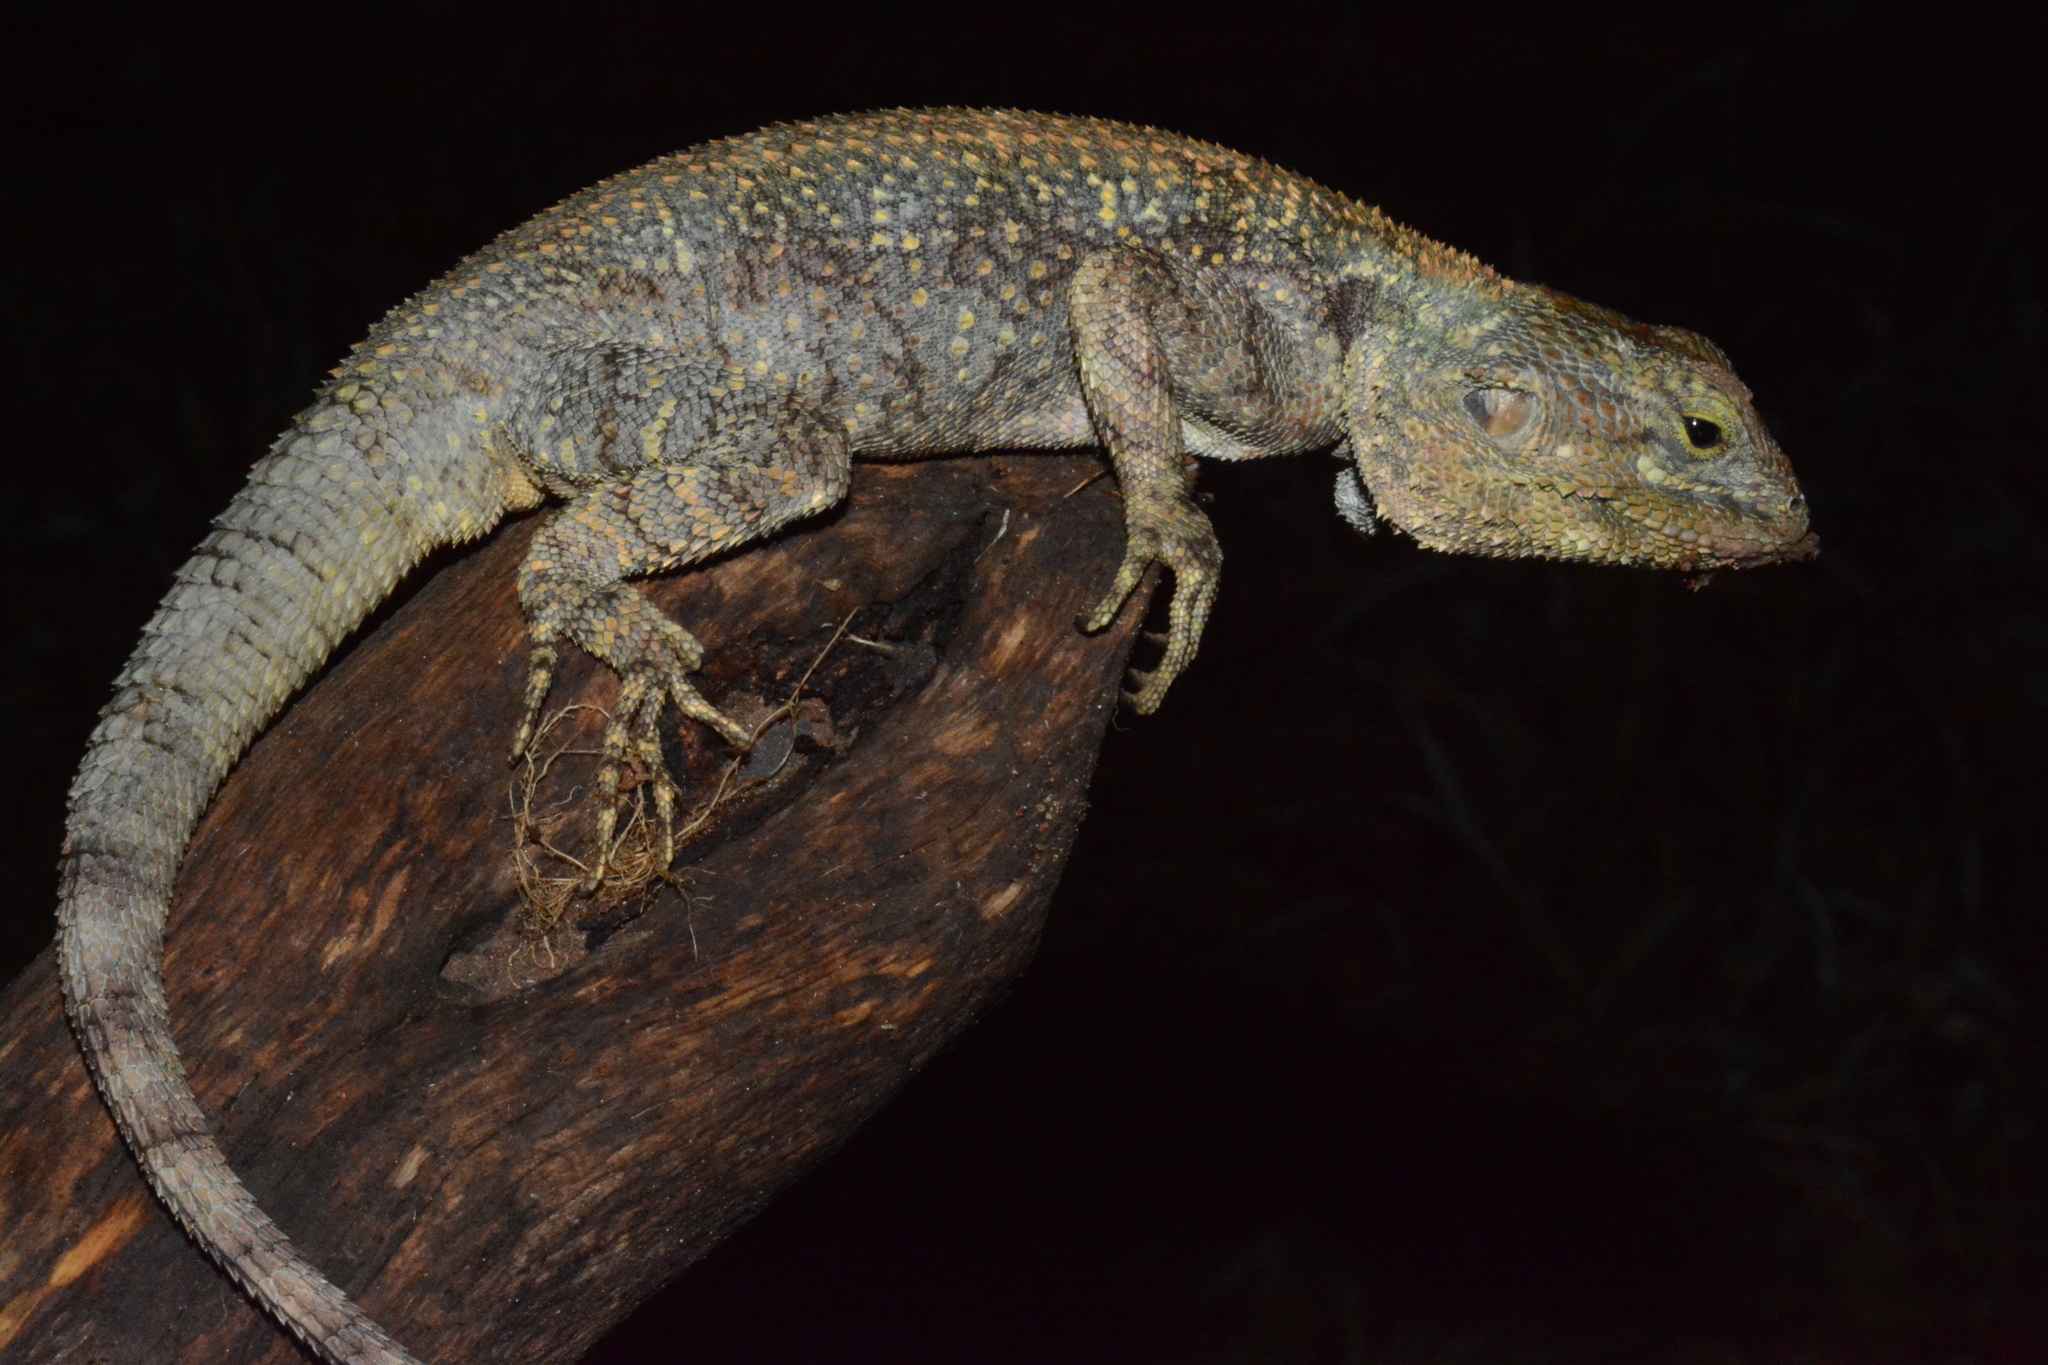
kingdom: Animalia
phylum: Chordata
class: Squamata
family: Agamidae
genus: Acanthocercus
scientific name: Acanthocercus gregorii
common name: Black-necked (ridgeback) agama
